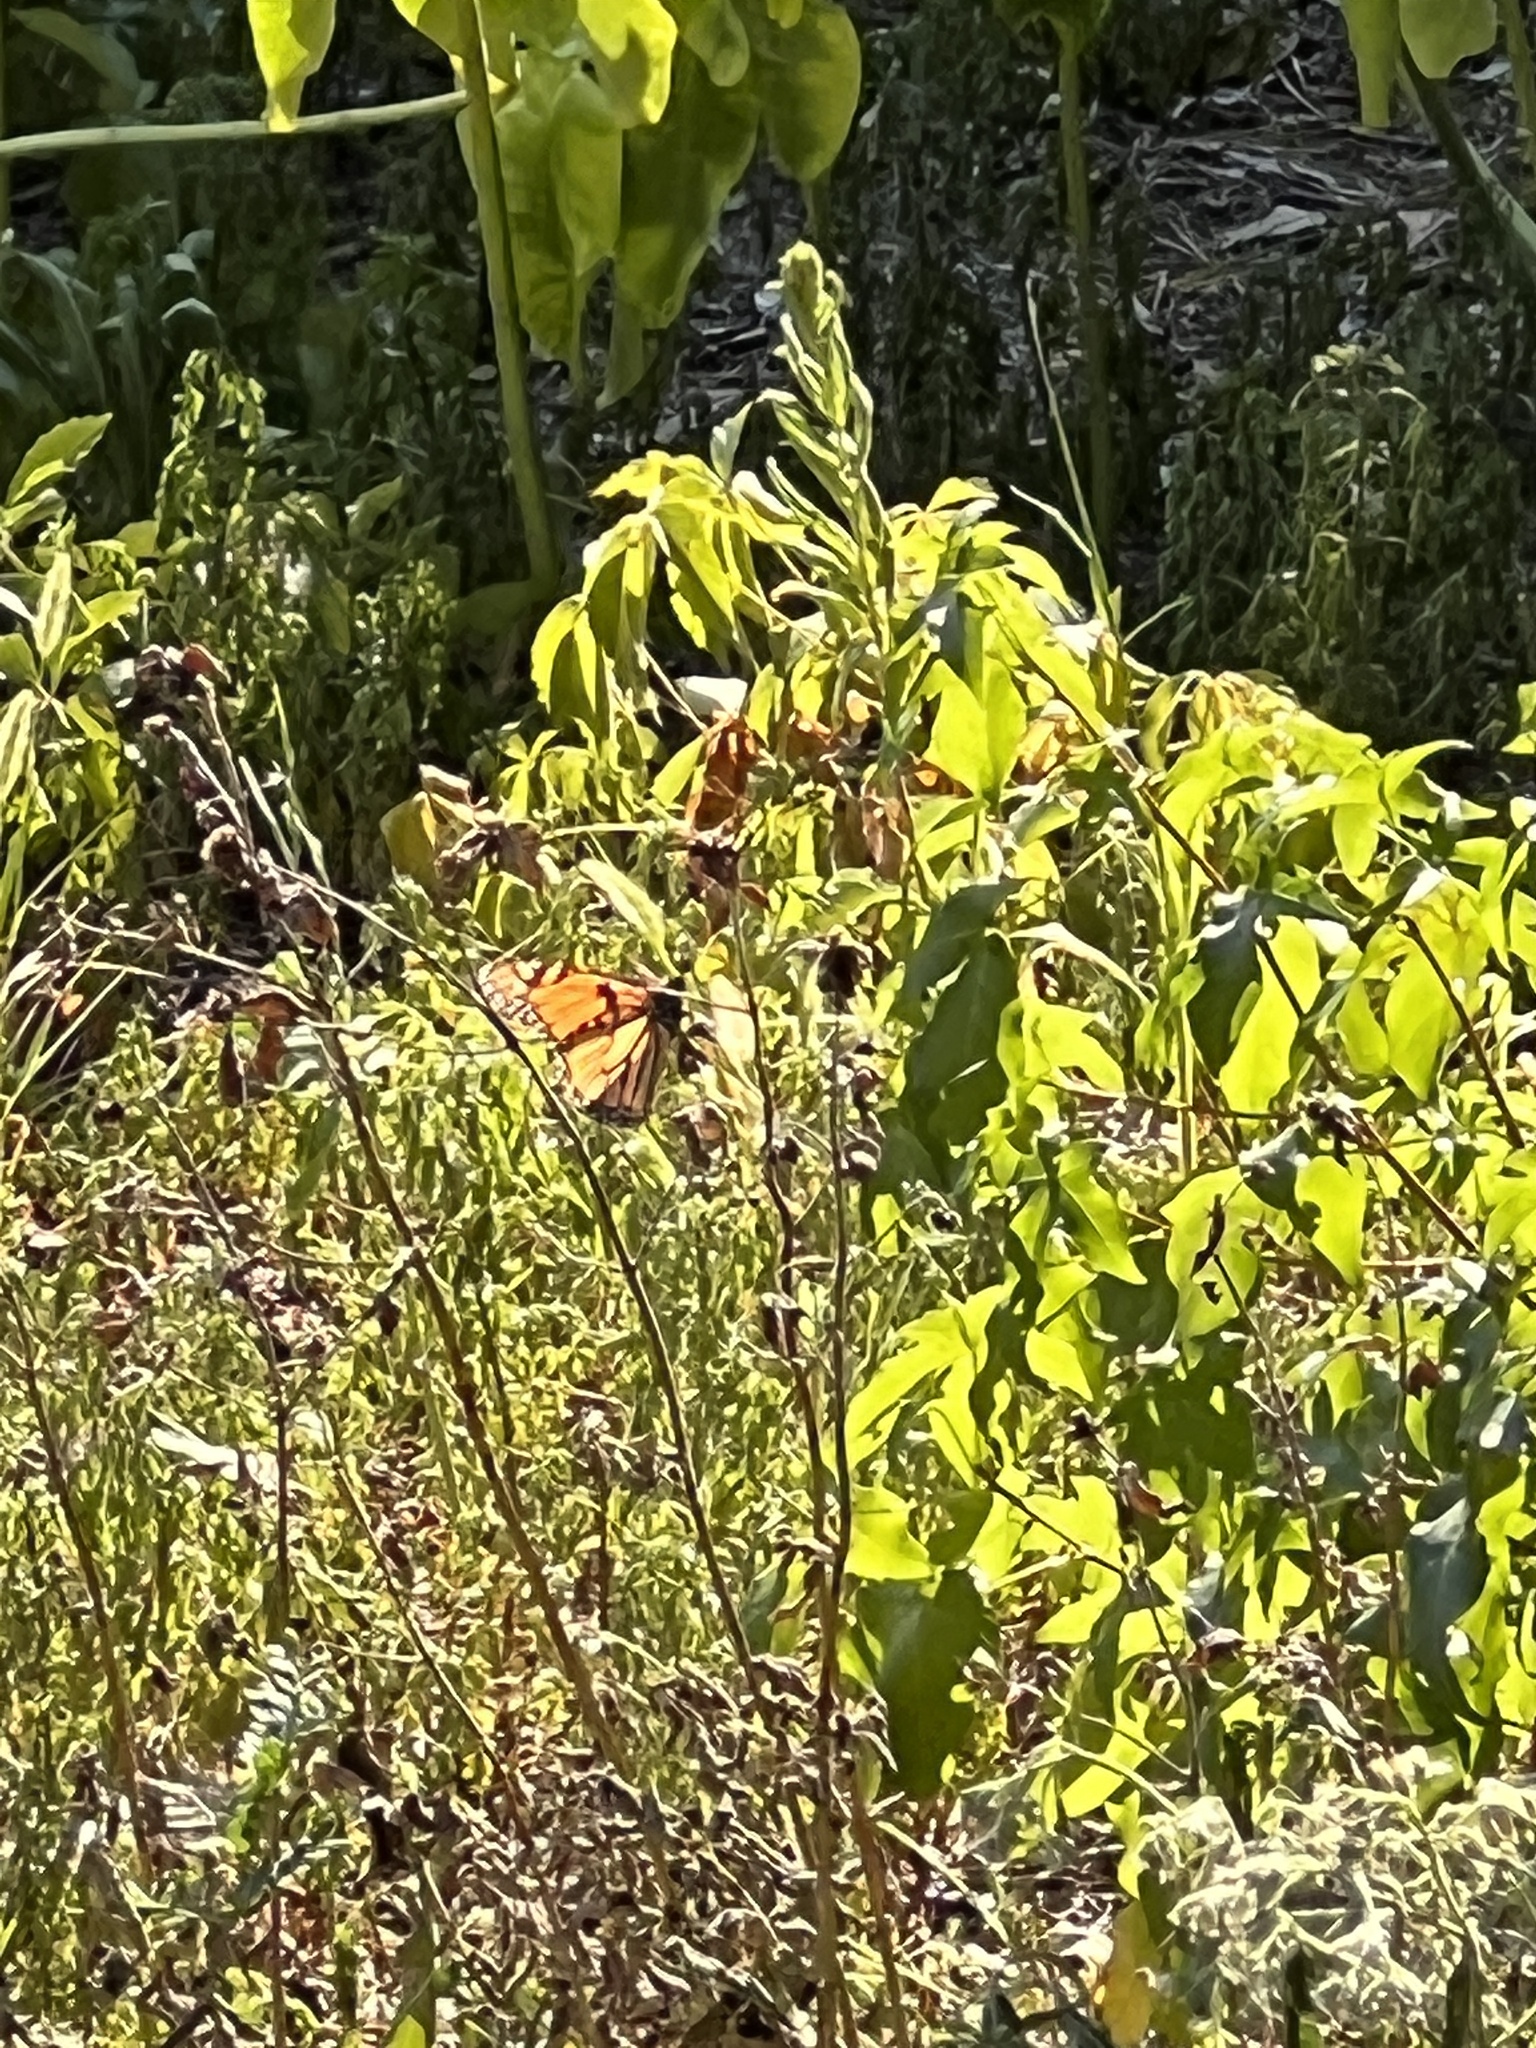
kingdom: Animalia
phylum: Arthropoda
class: Insecta
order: Lepidoptera
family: Nymphalidae
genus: Danaus
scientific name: Danaus plexippus
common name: Monarch
